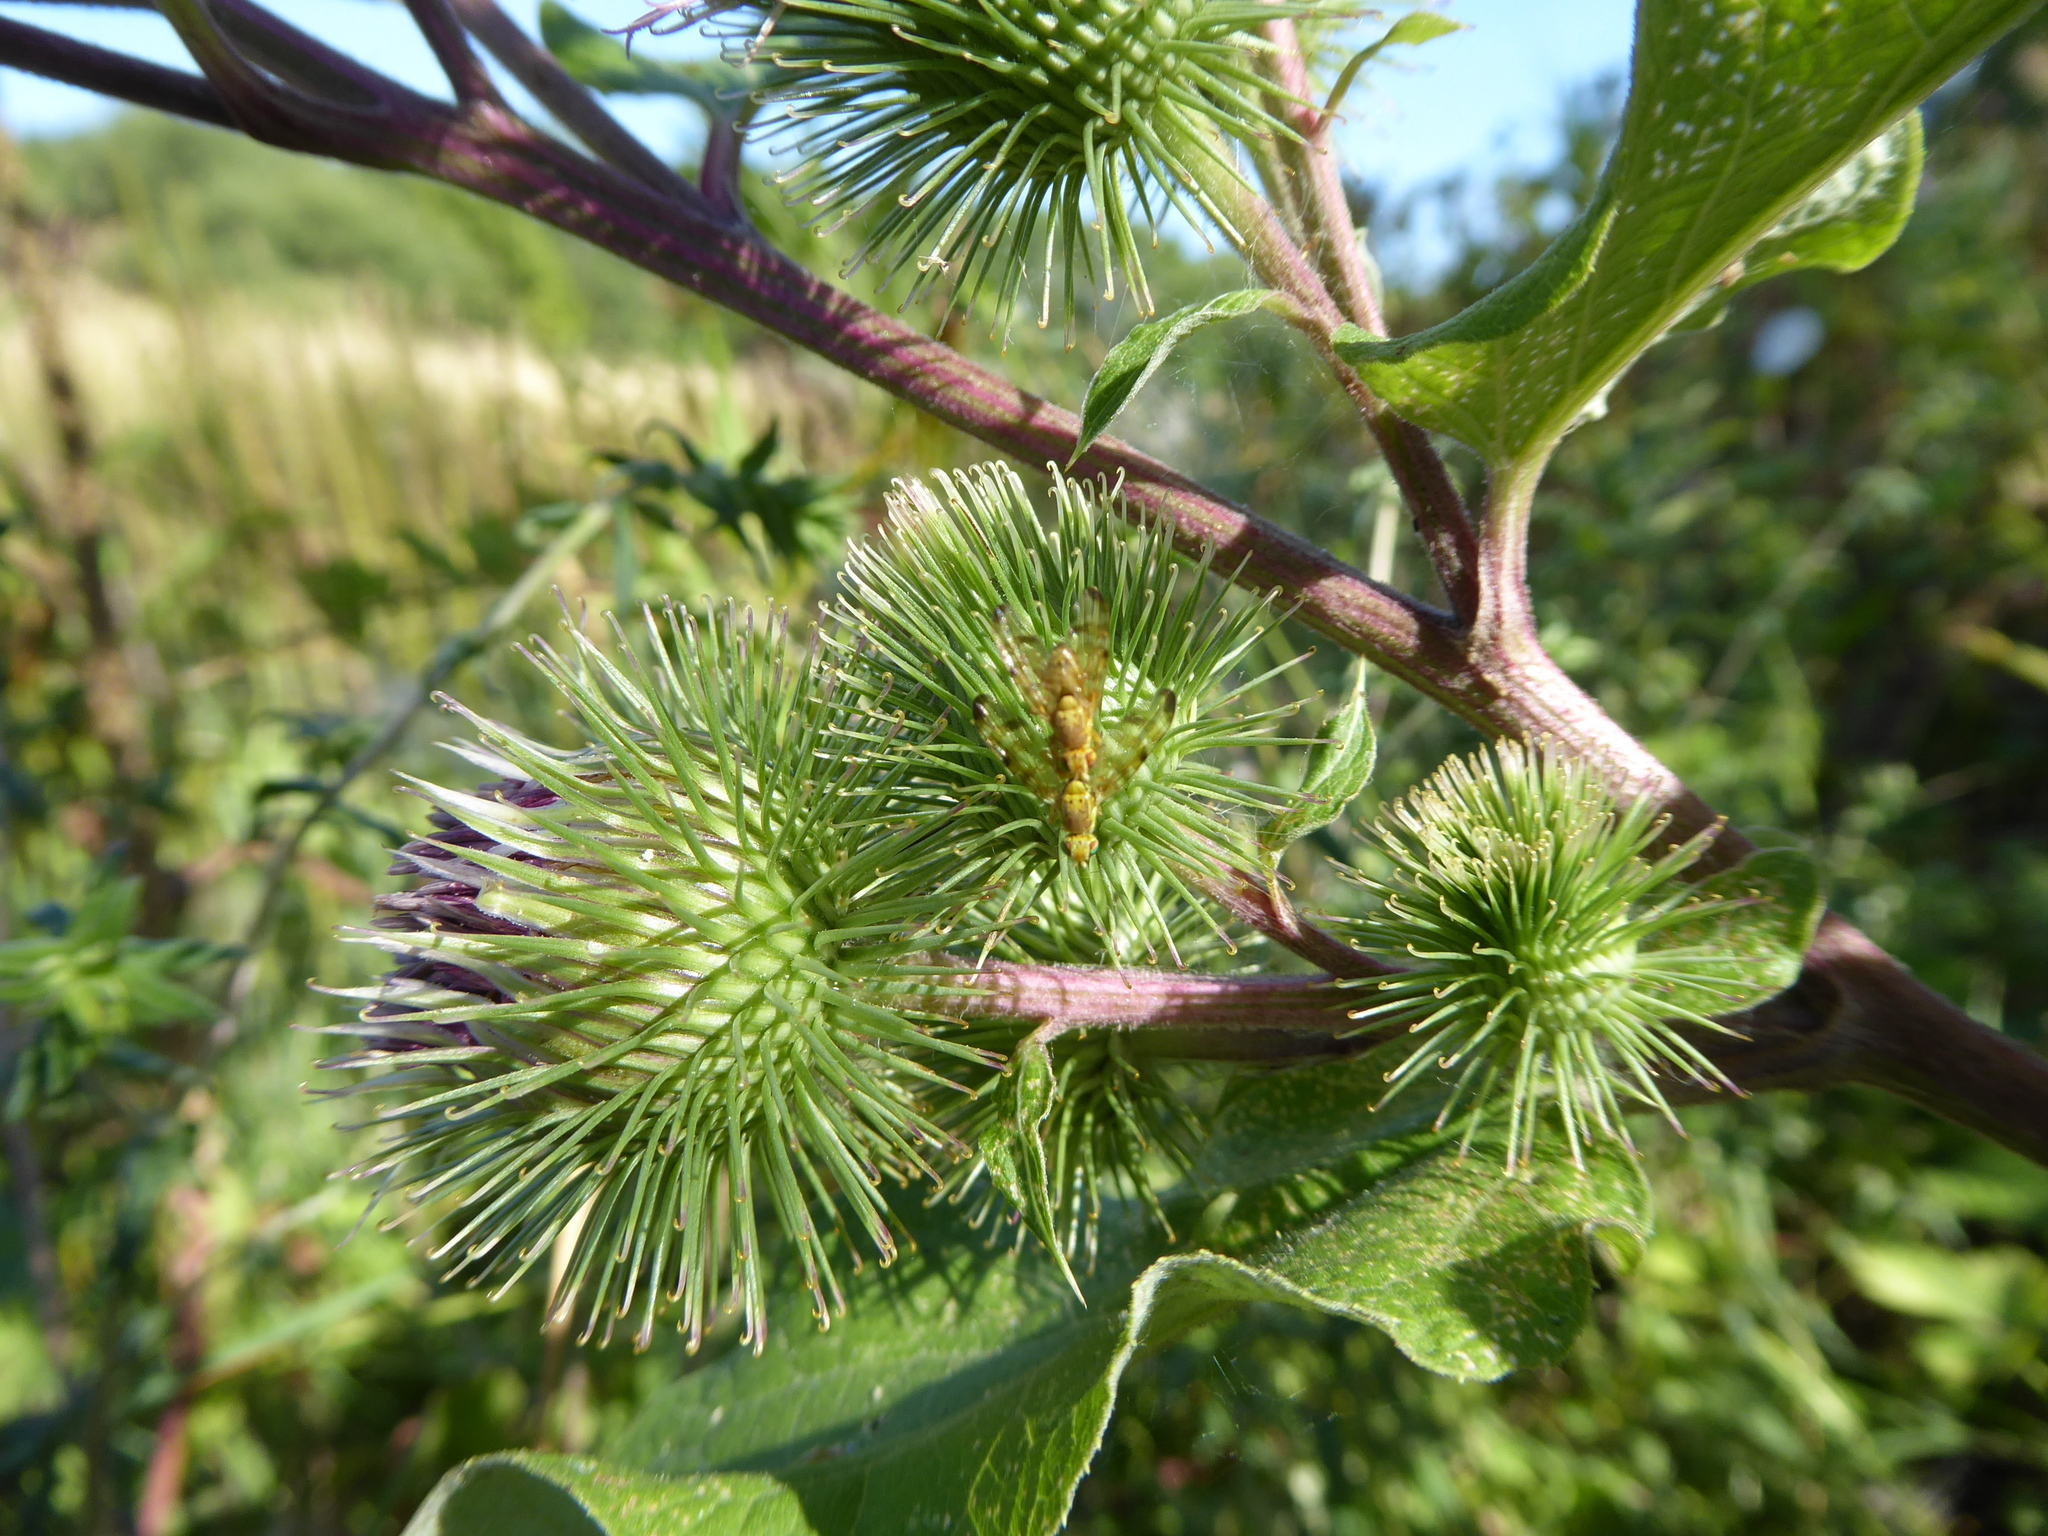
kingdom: Animalia
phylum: Arthropoda
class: Insecta
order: Diptera
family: Tephritidae
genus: Terellia
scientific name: Terellia tussilaginis
